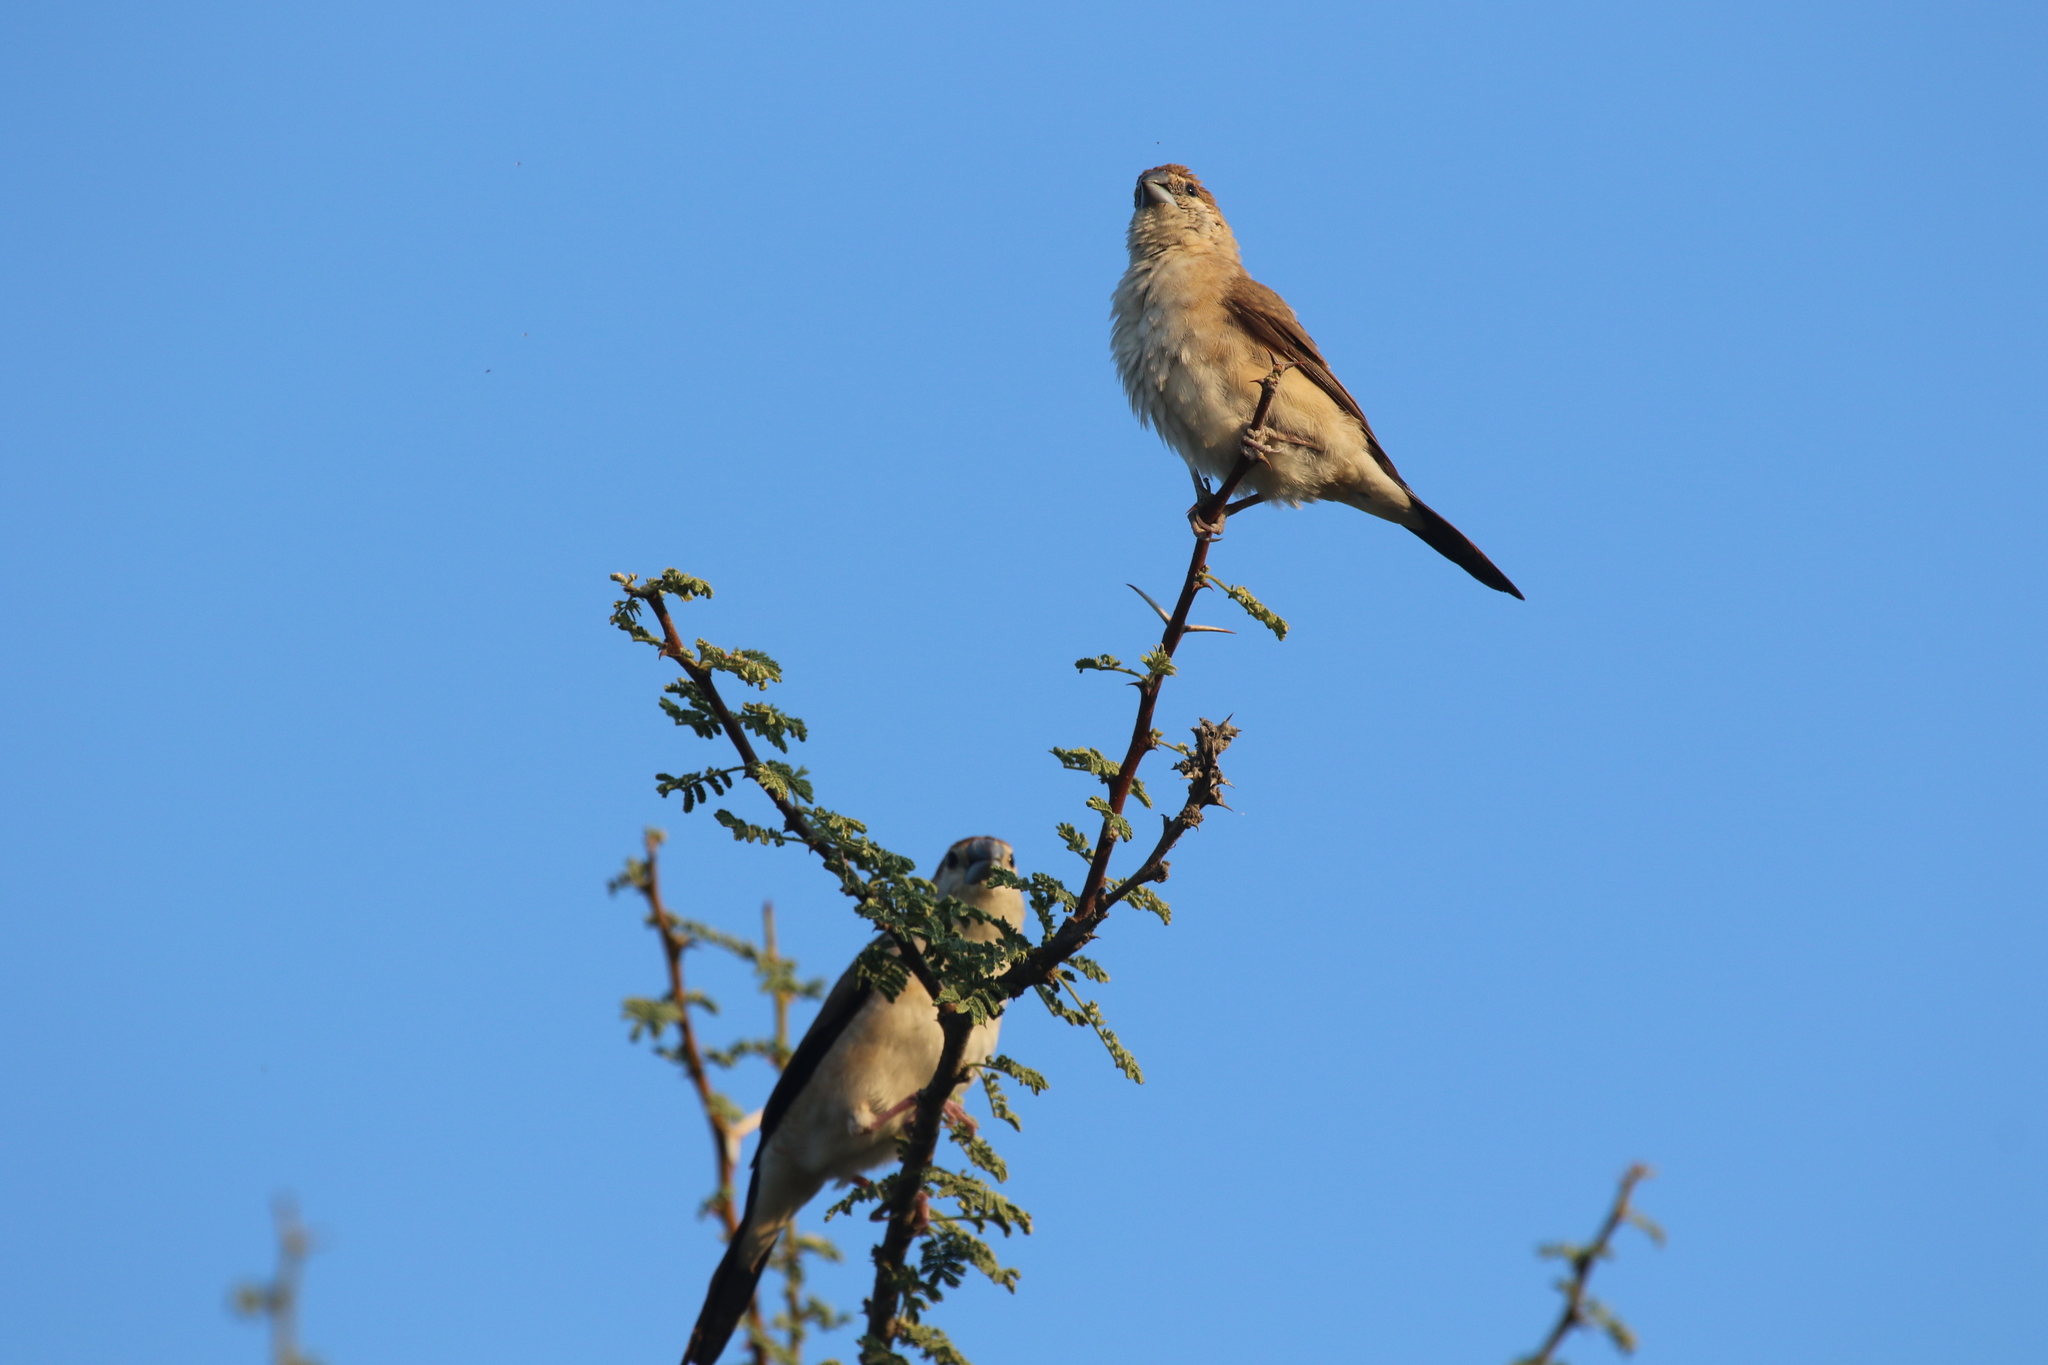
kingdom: Animalia
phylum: Chordata
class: Aves
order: Passeriformes
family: Estrildidae
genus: Euodice
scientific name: Euodice malabarica
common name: Indian silverbill
